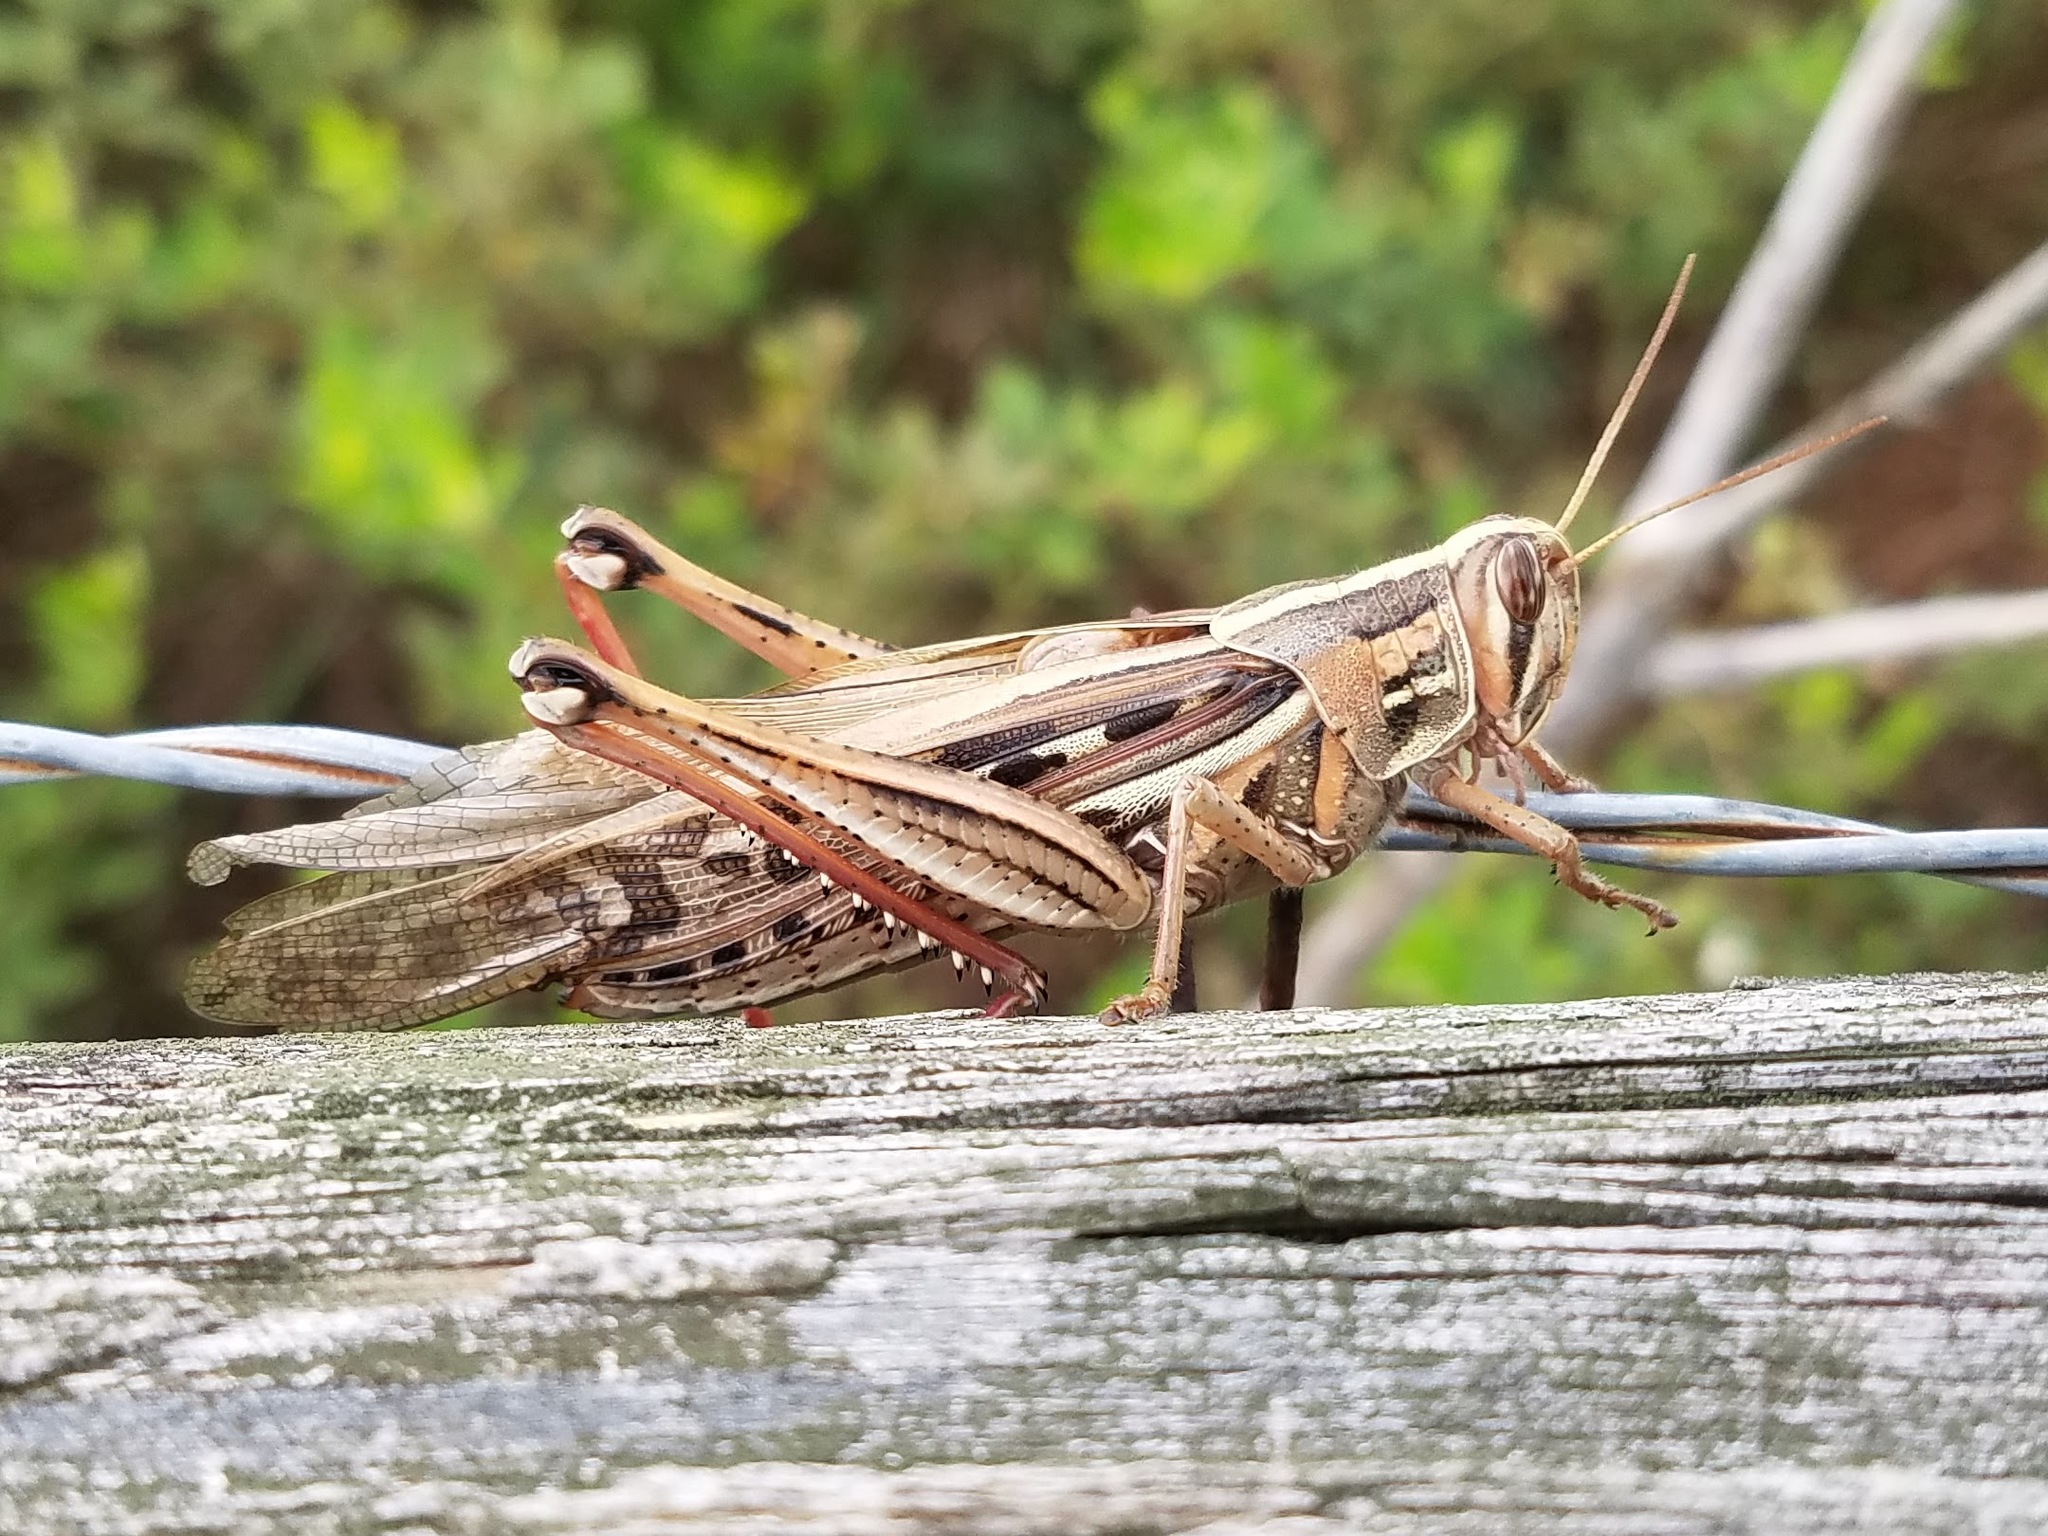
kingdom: Animalia
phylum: Arthropoda
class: Insecta
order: Orthoptera
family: Acrididae
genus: Schistocerca
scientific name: Schistocerca americana
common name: American bird locust
